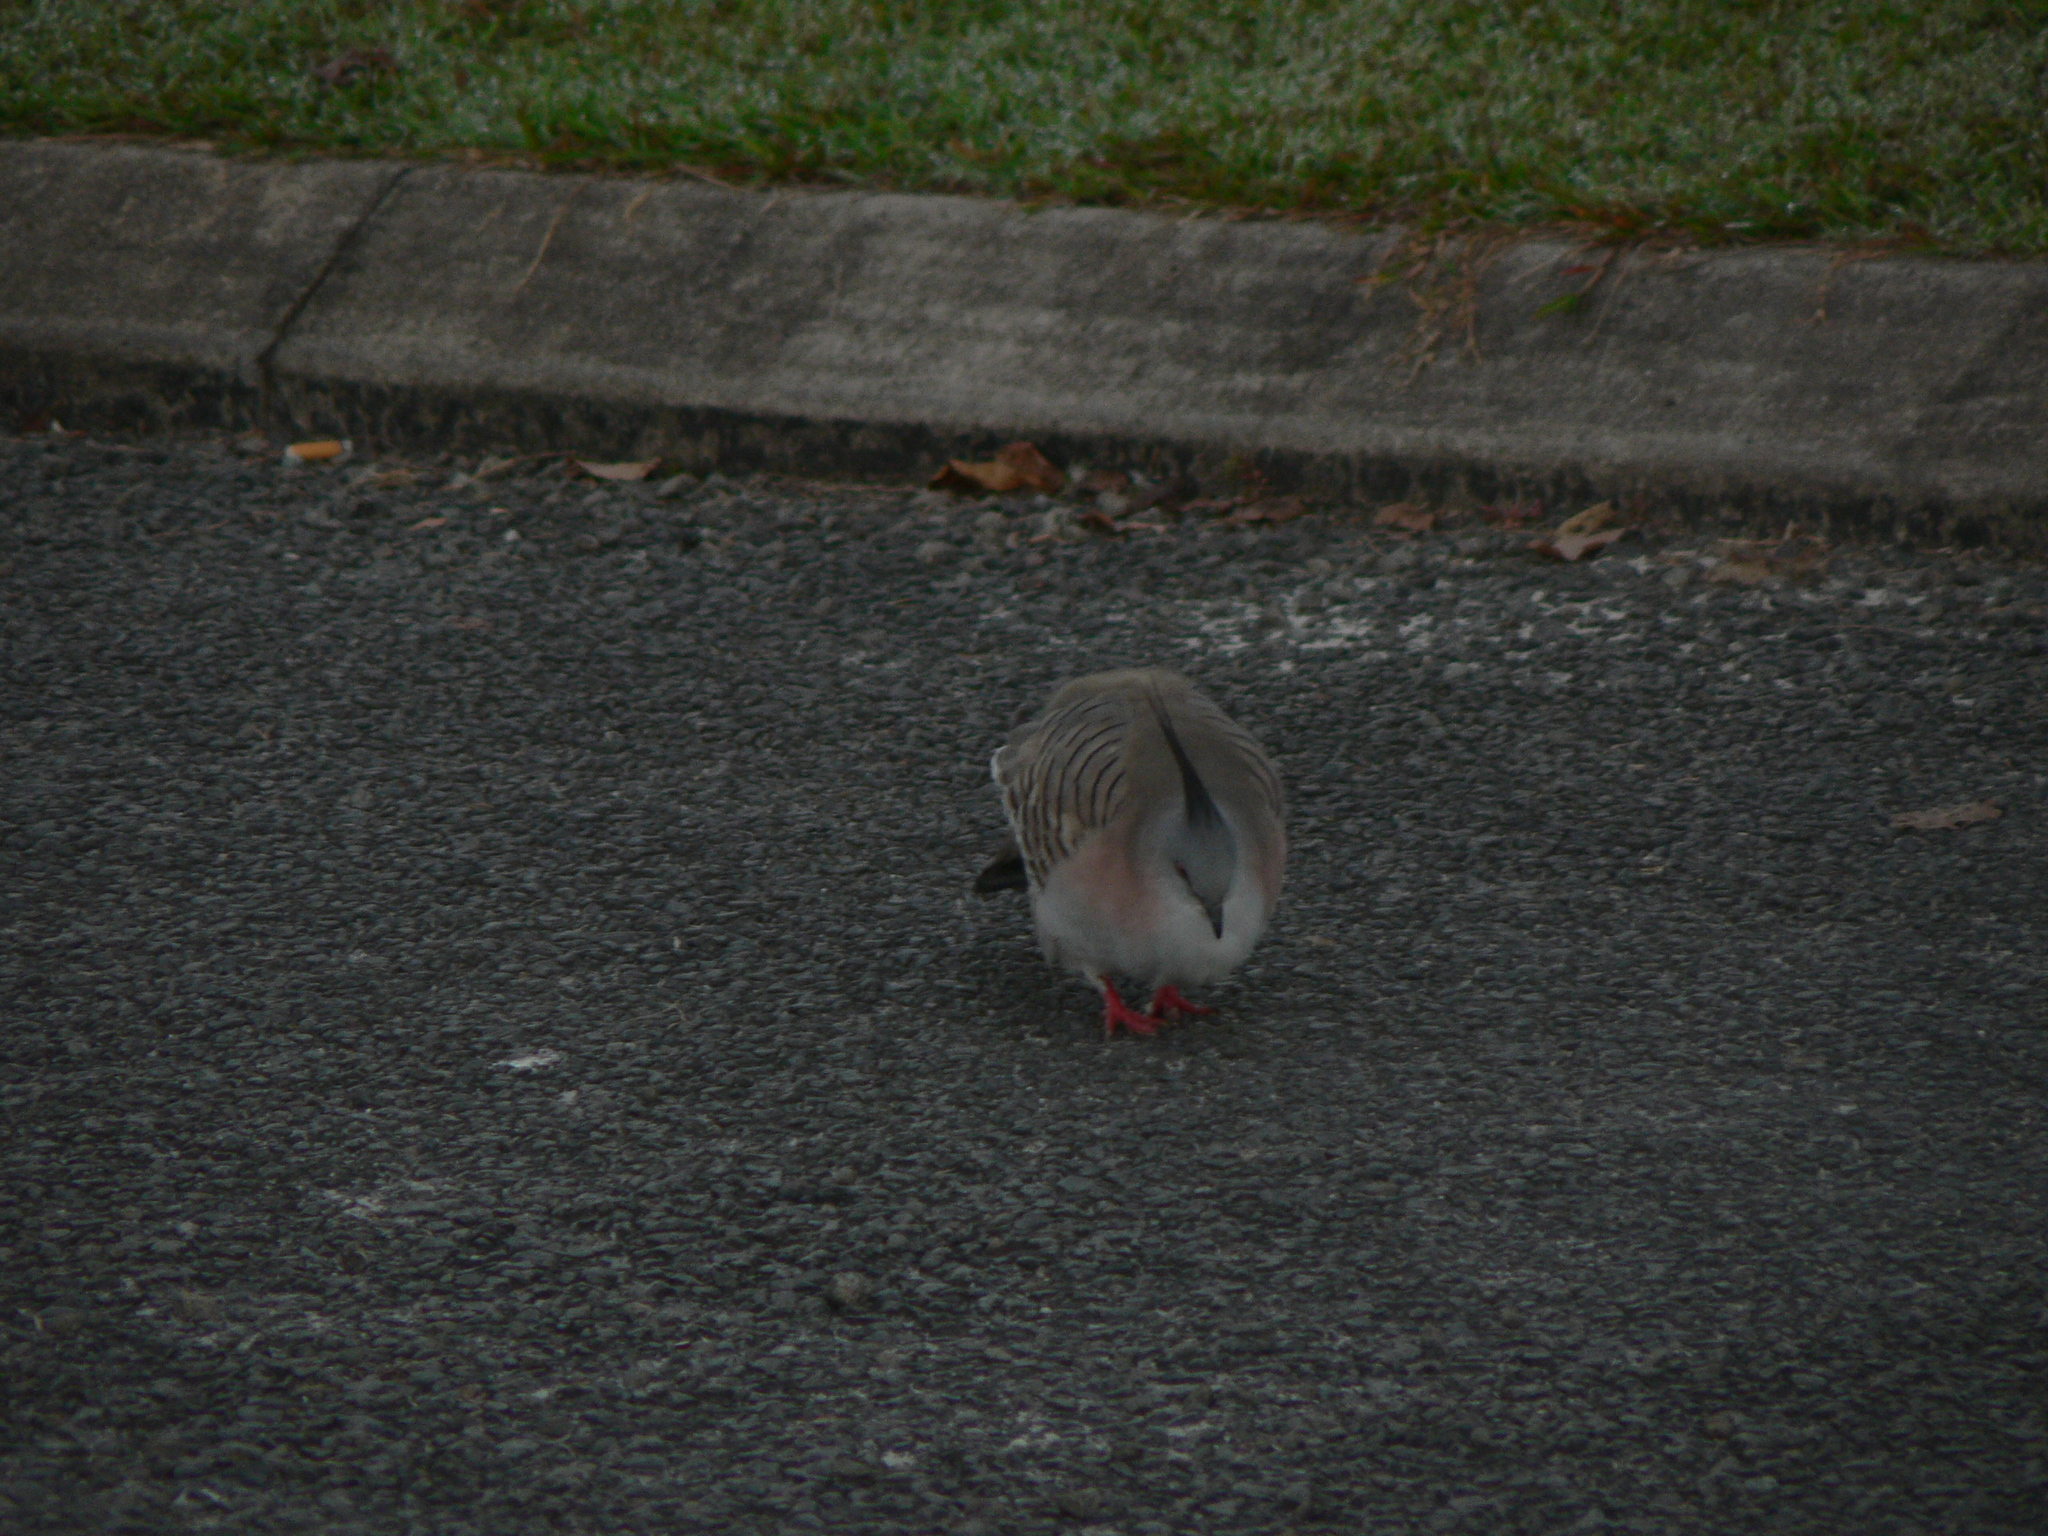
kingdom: Animalia
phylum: Chordata
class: Aves
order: Columbiformes
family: Columbidae
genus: Ocyphaps
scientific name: Ocyphaps lophotes
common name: Crested pigeon
